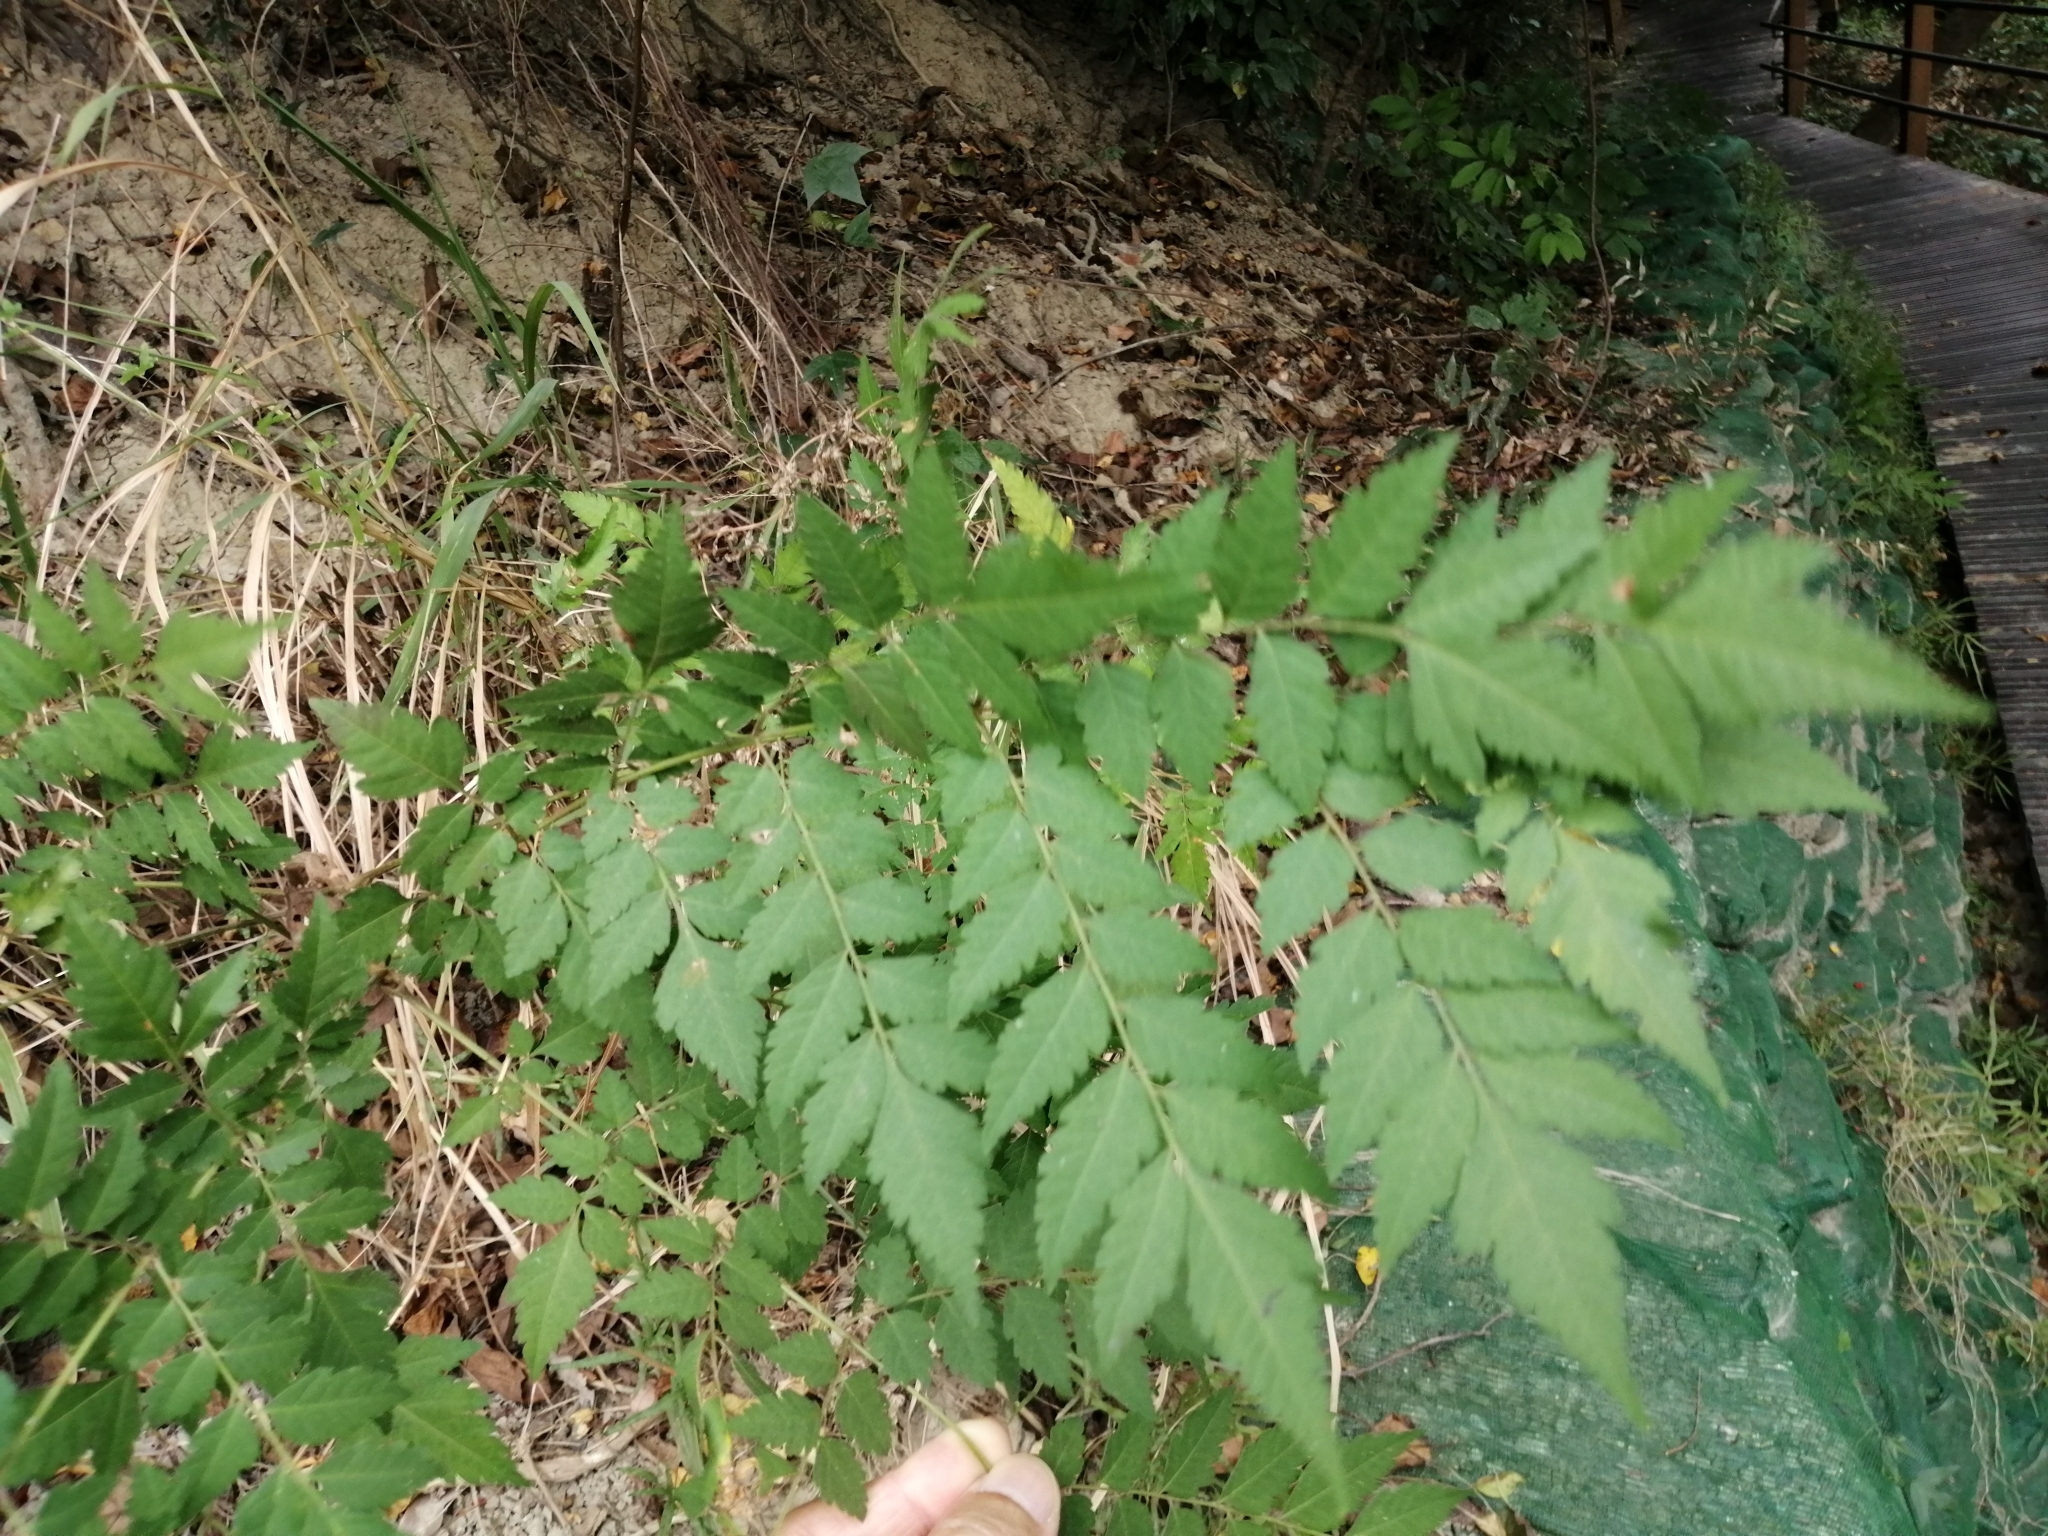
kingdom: Plantae
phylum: Tracheophyta
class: Magnoliopsida
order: Sapindales
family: Sapindaceae
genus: Koelreuteria
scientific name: Koelreuteria elegans
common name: Chinese flame tree
